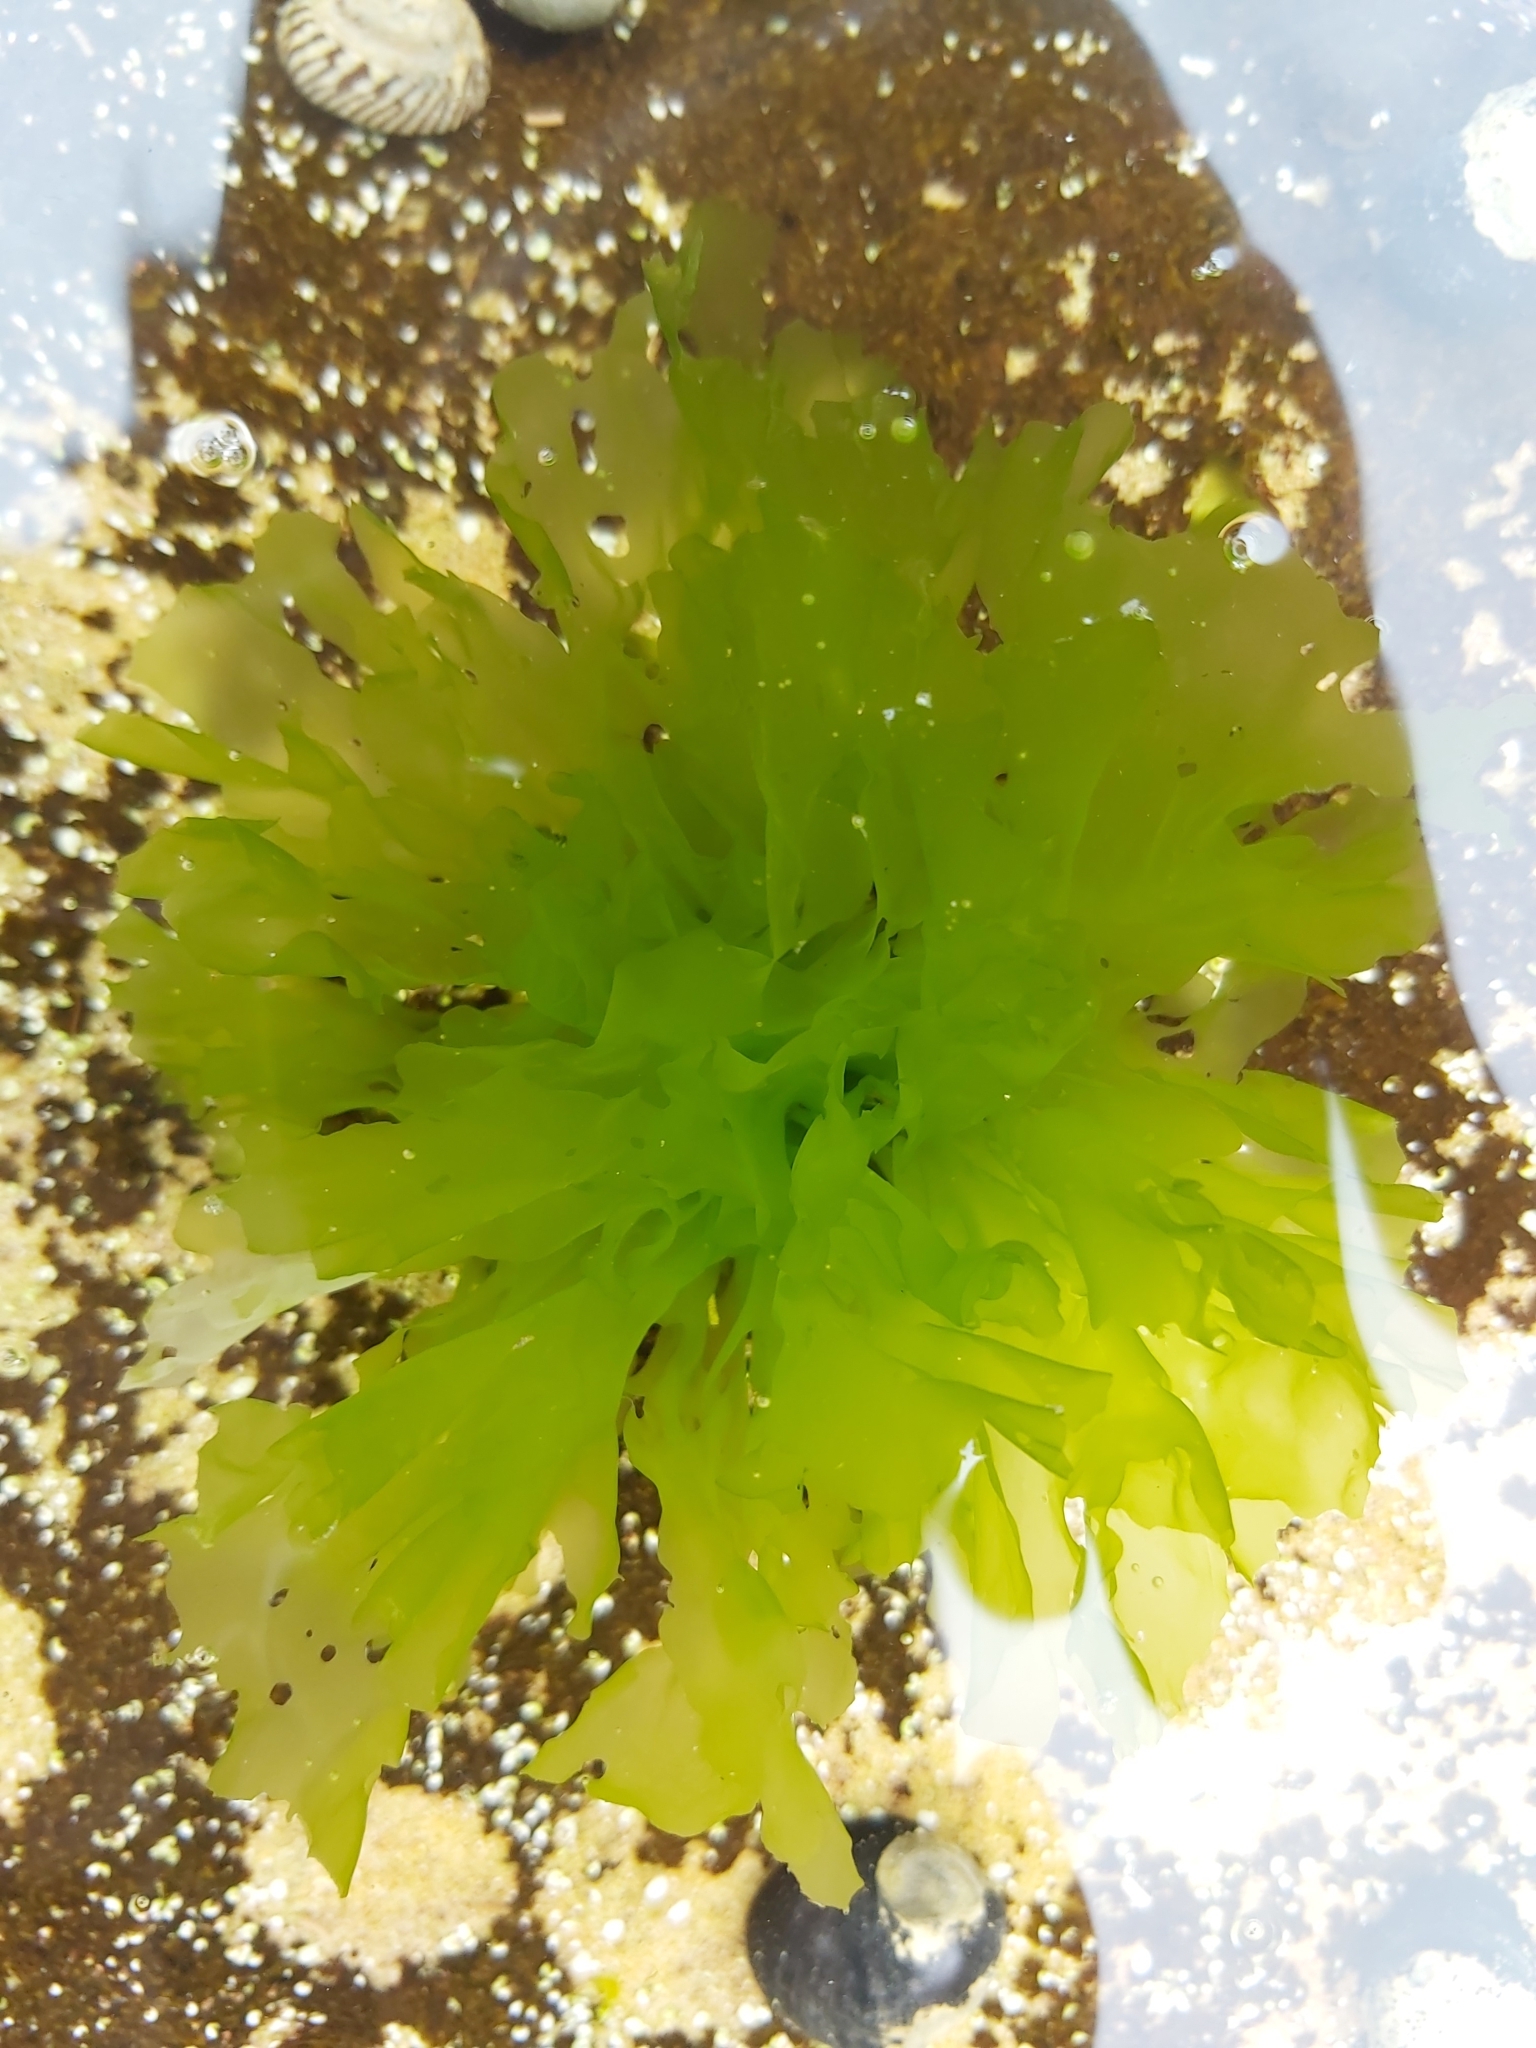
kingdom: Plantae
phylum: Chlorophyta
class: Ulvophyceae
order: Ulvales
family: Ulvaceae
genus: Ulva
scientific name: Ulva lactuca
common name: Sea lettuce
